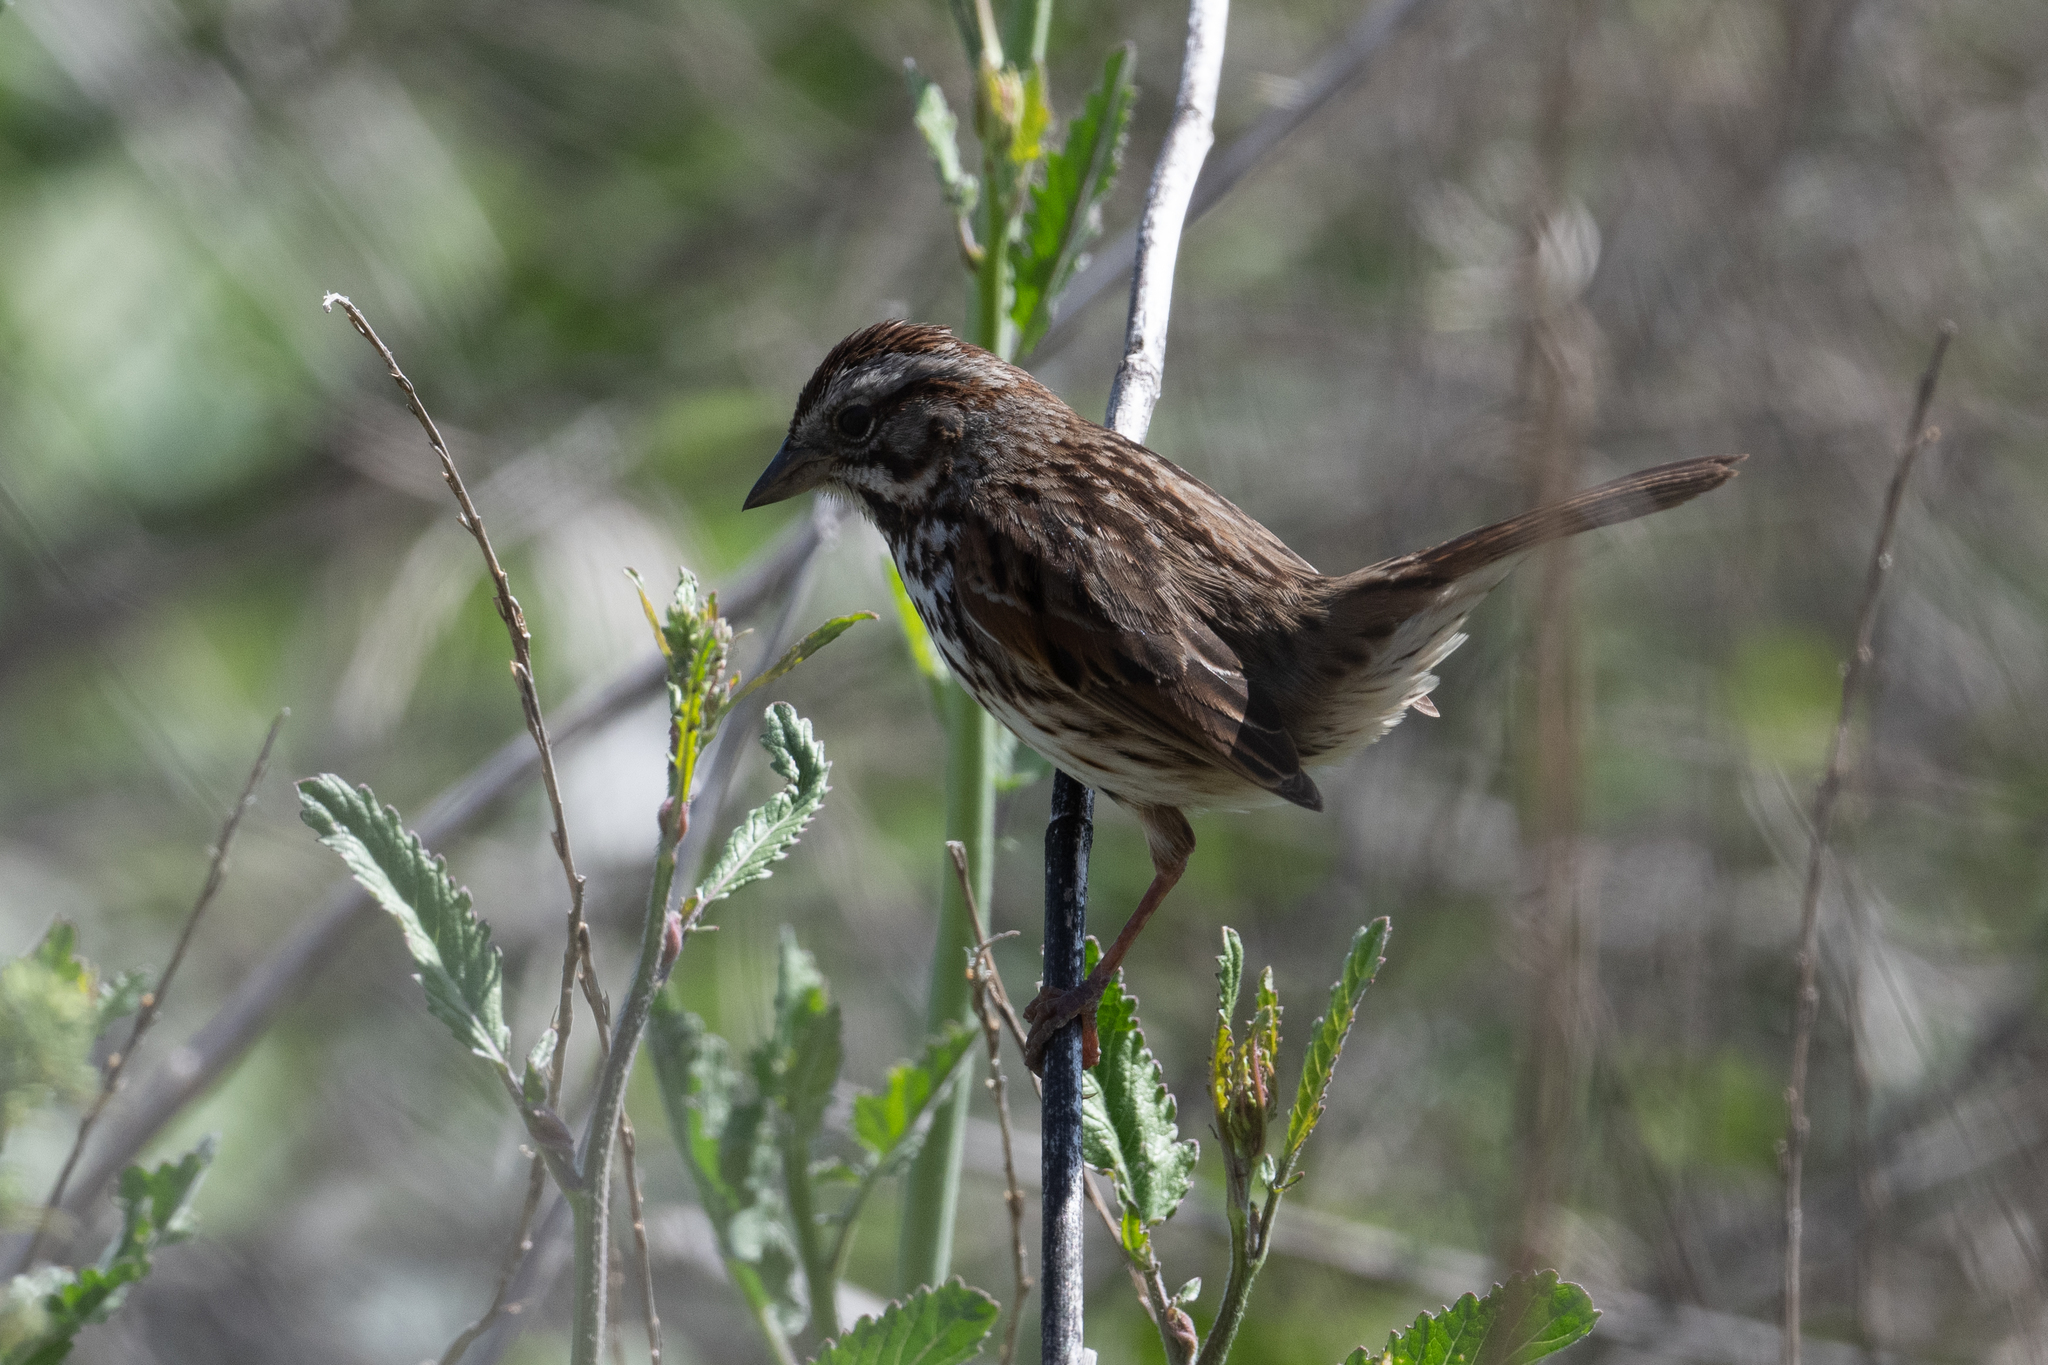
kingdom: Animalia
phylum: Chordata
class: Aves
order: Passeriformes
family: Passerellidae
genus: Melospiza
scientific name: Melospiza melodia
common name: Song sparrow
